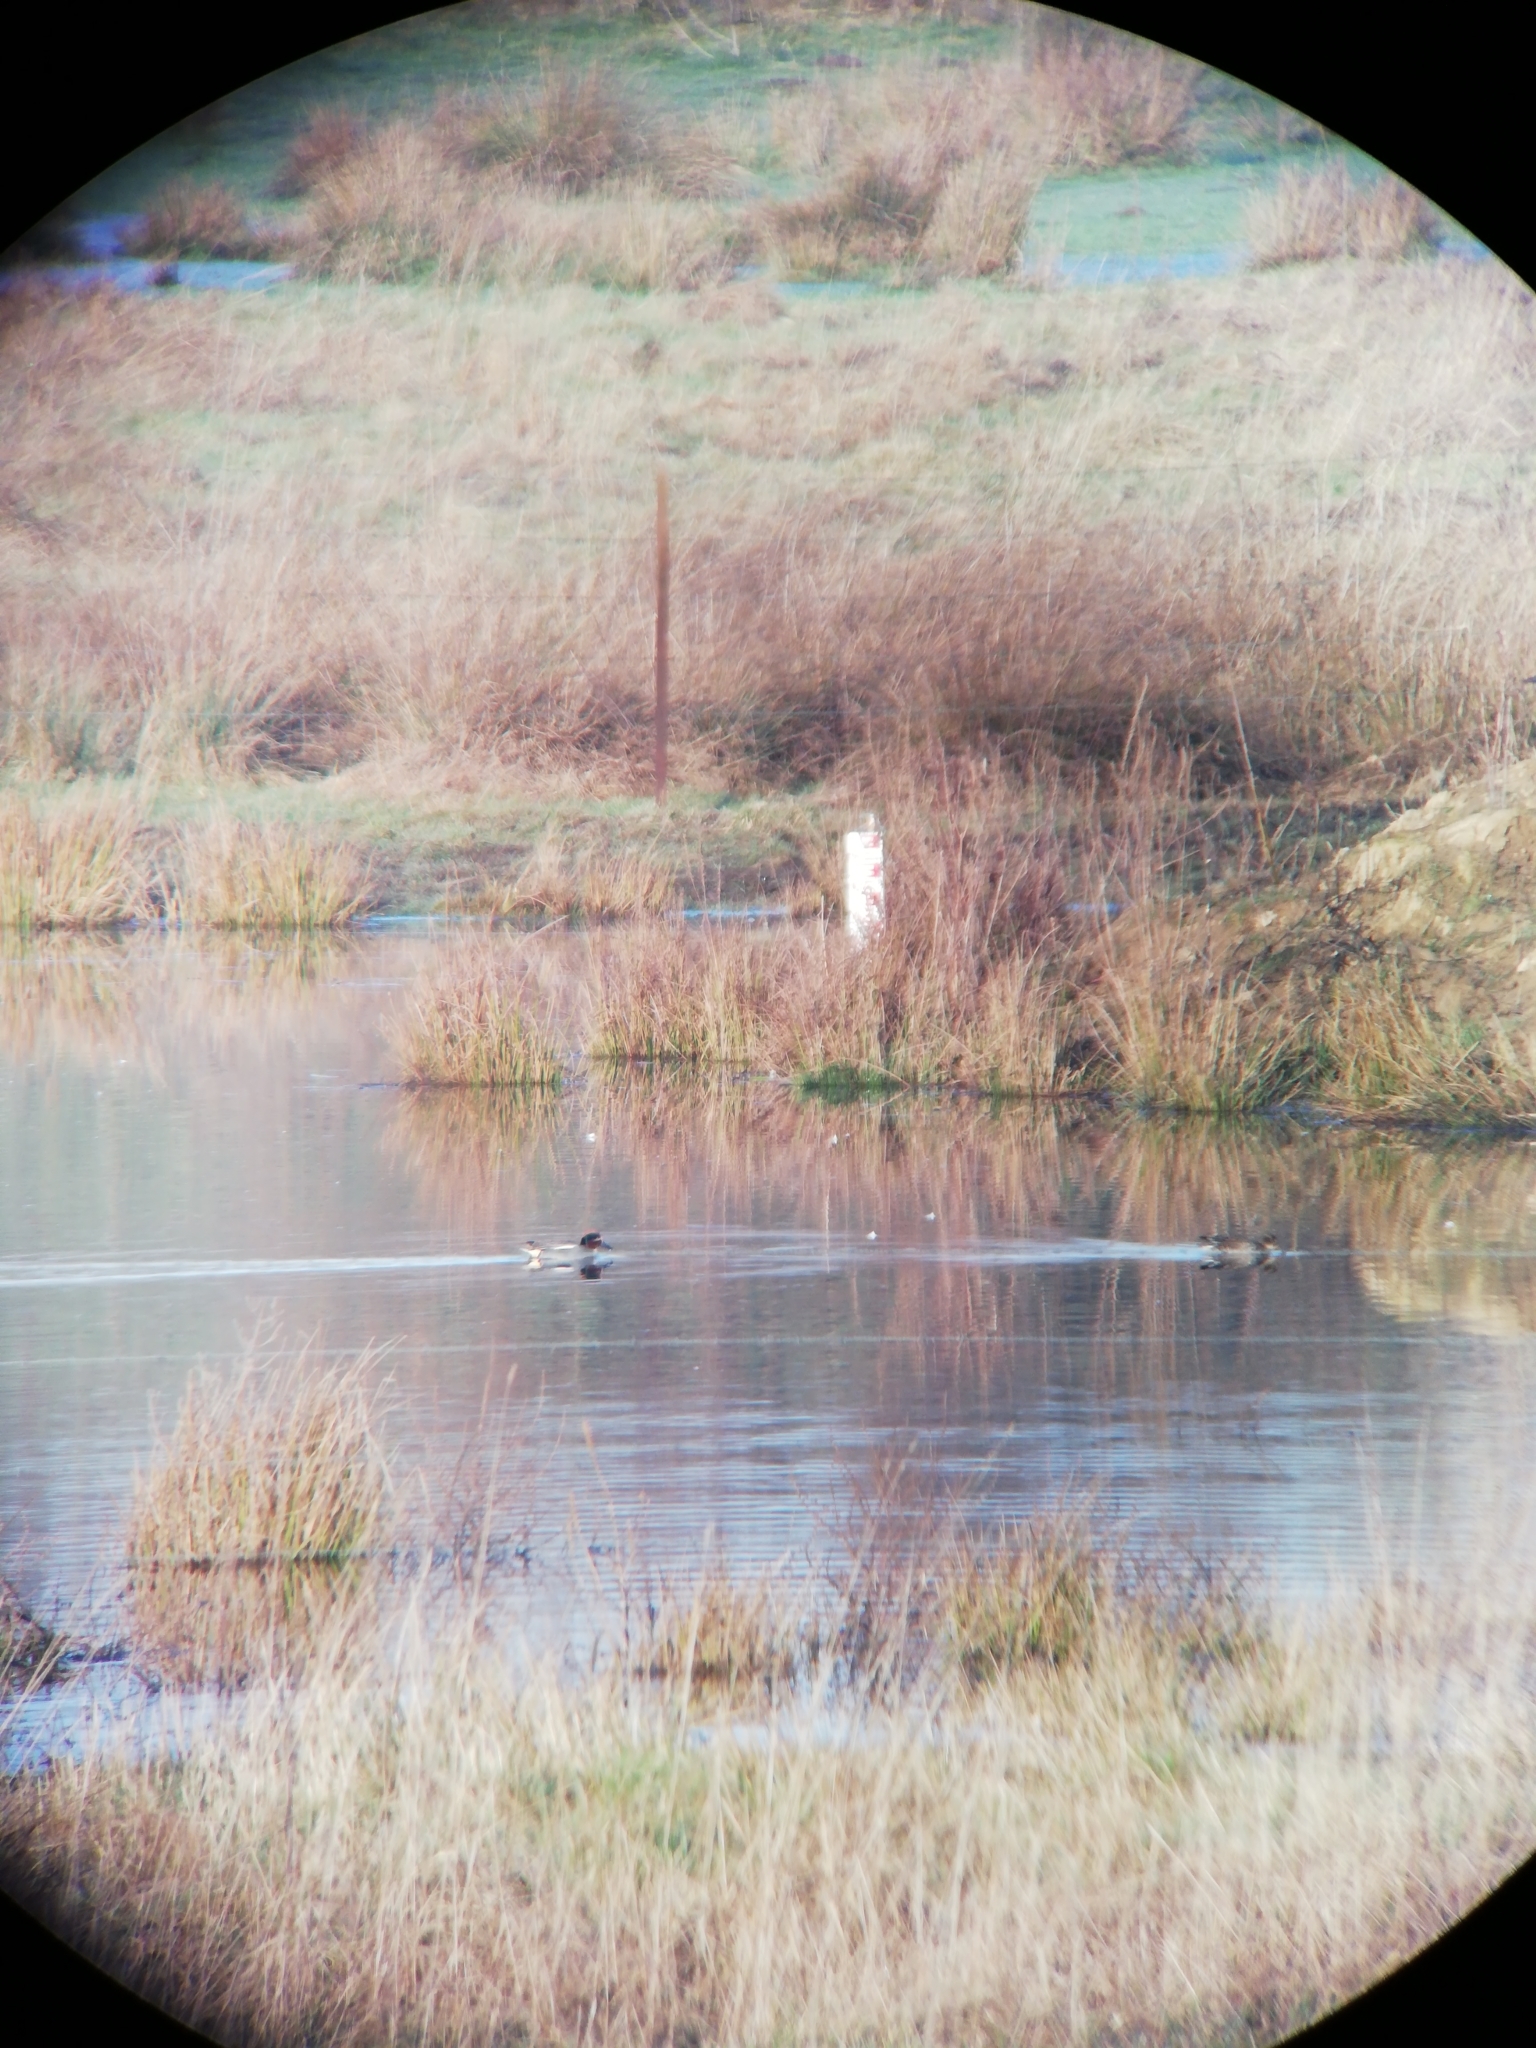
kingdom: Animalia
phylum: Chordata
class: Aves
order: Anseriformes
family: Anatidae
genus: Anas
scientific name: Anas crecca
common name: Eurasian teal
